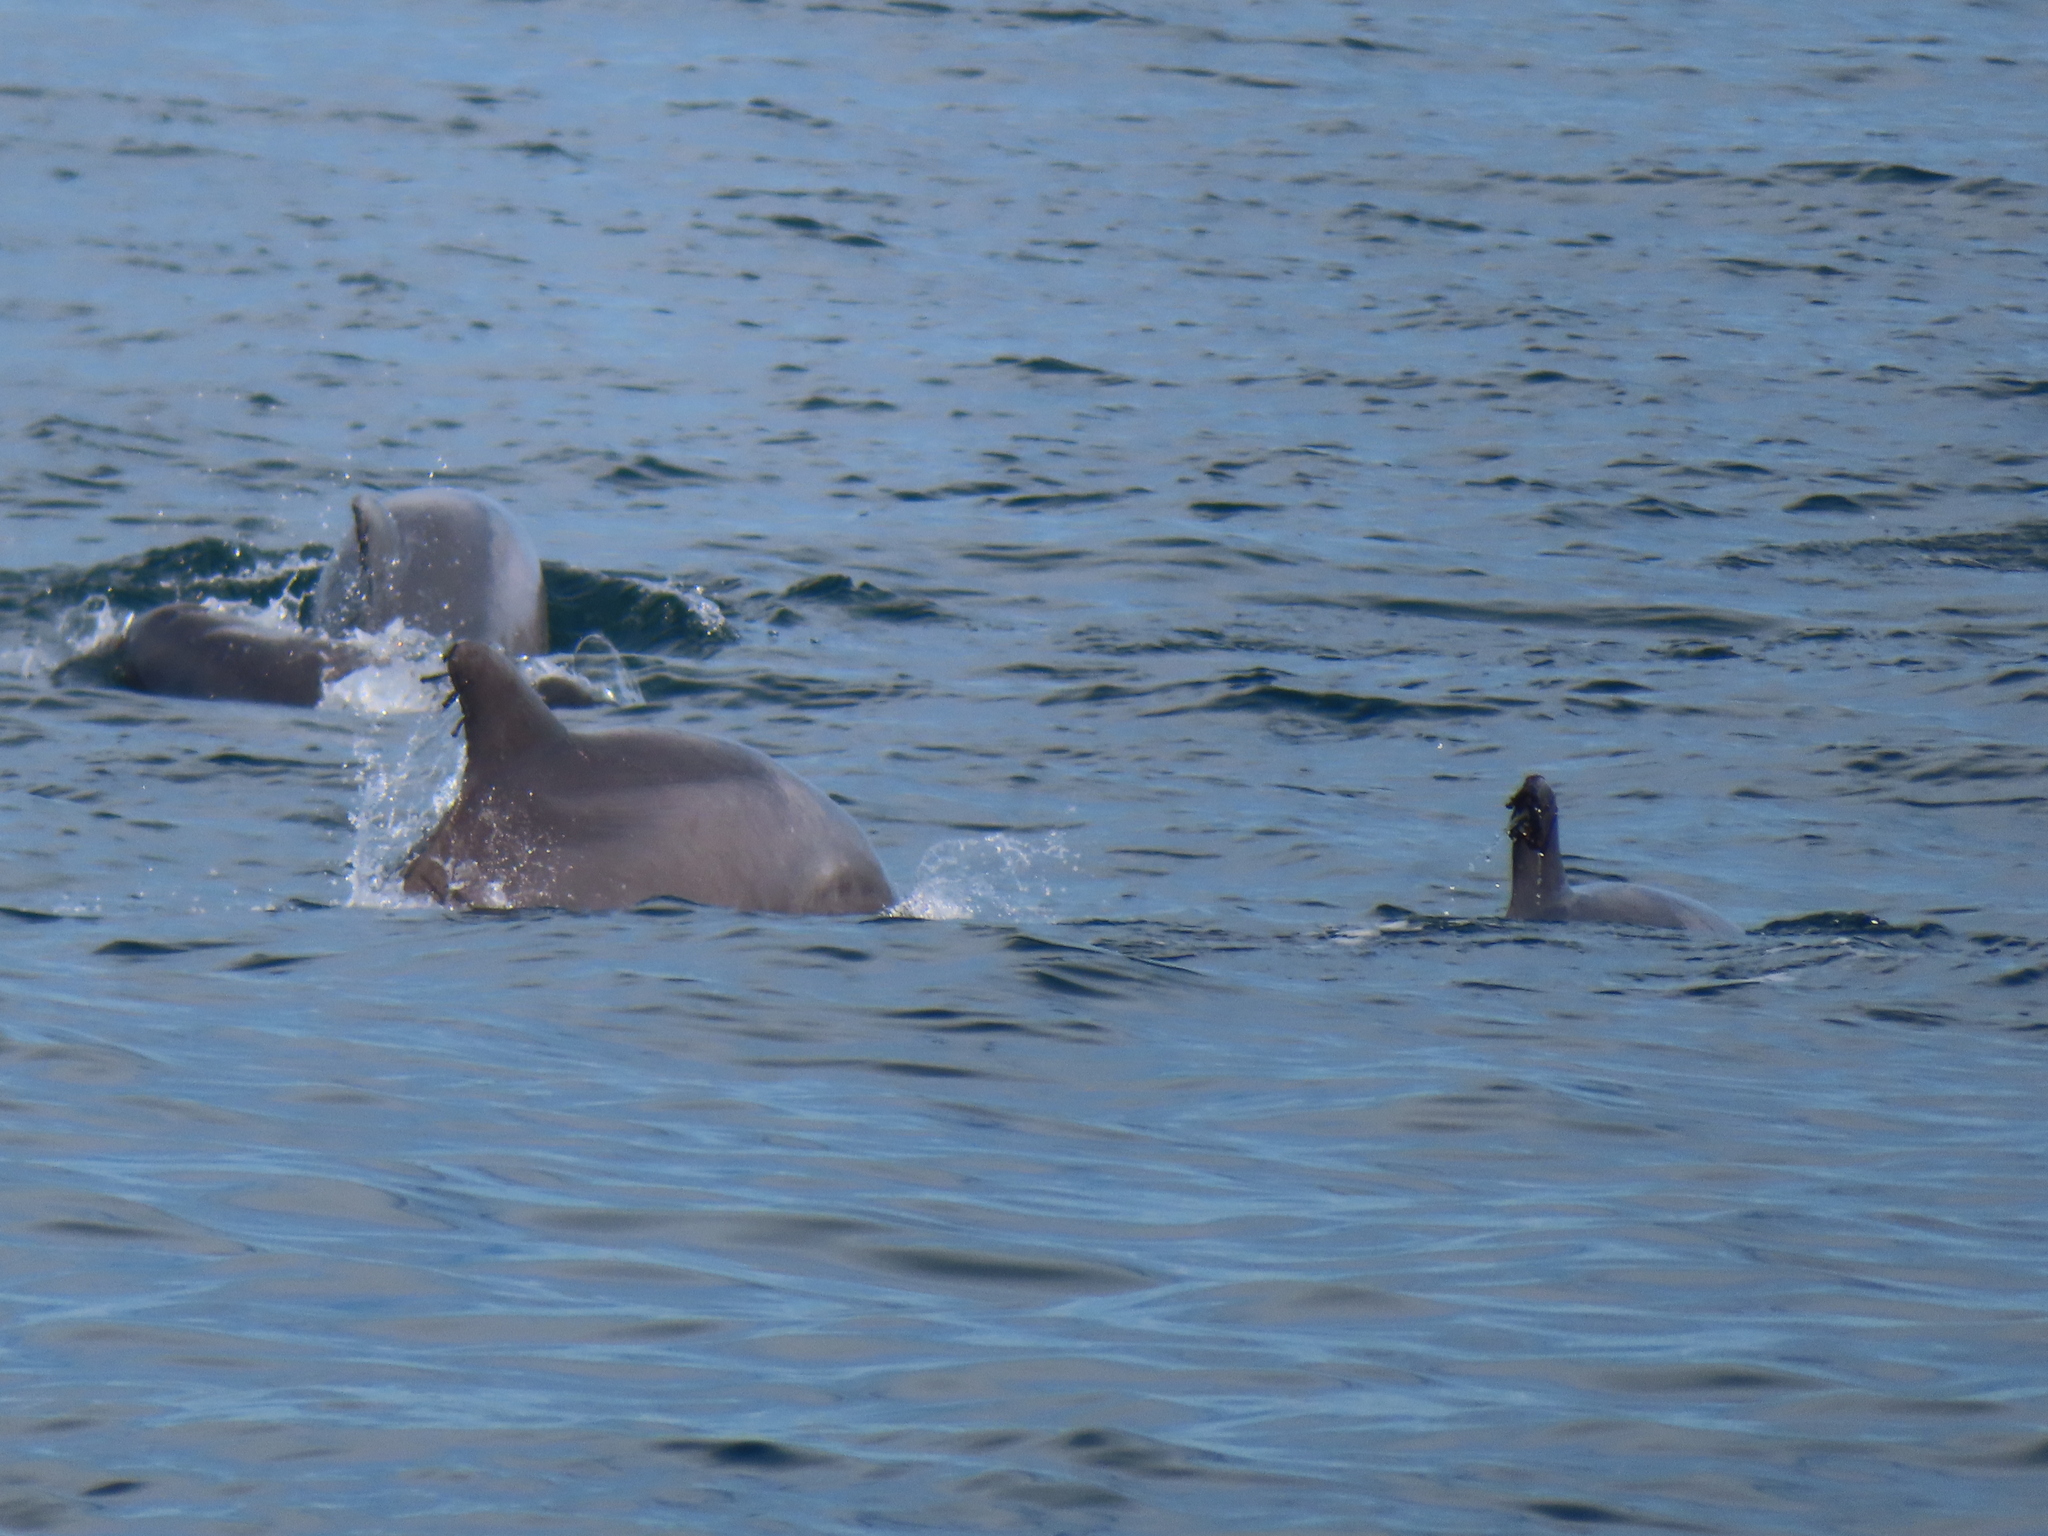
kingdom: Animalia
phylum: Chordata
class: Mammalia
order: Cetacea
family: Delphinidae
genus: Tursiops
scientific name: Tursiops truncatus
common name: Bottlenose dolphin
